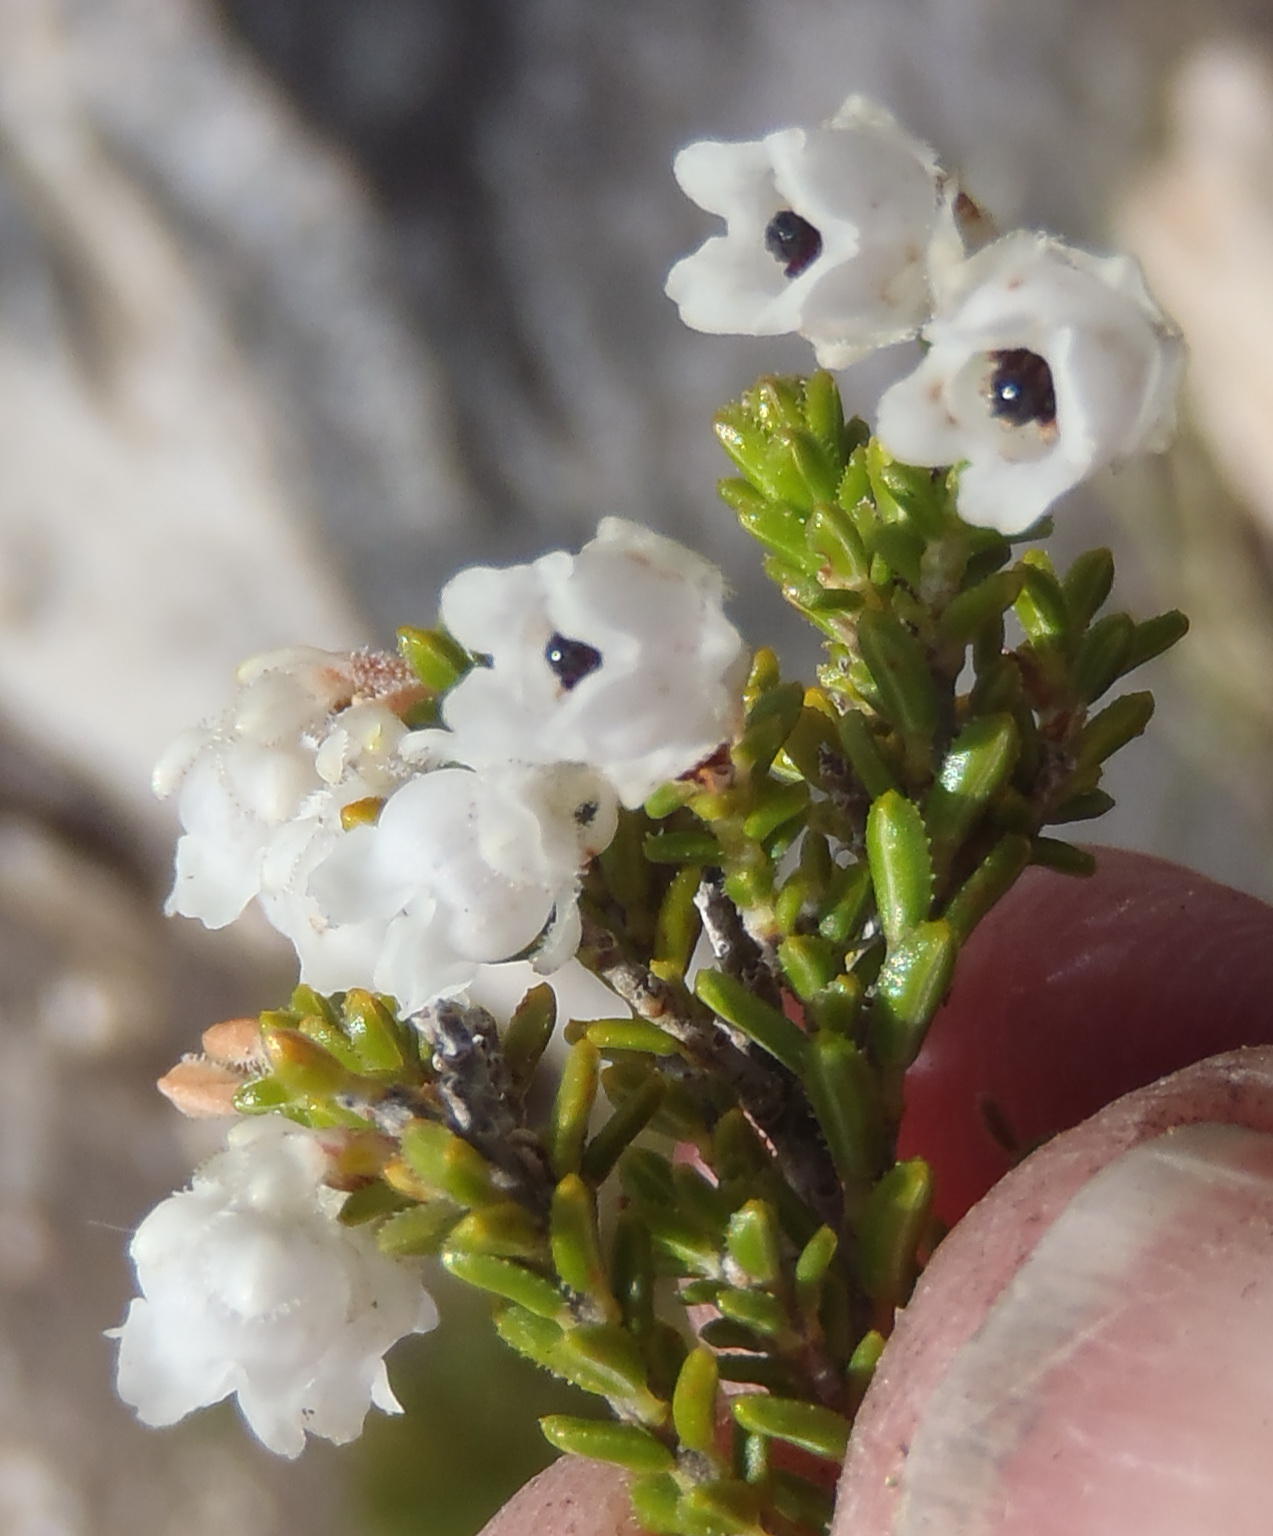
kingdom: Plantae
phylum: Tracheophyta
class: Magnoliopsida
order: Ericales
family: Ericaceae
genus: Erica
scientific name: Erica fimbriata
